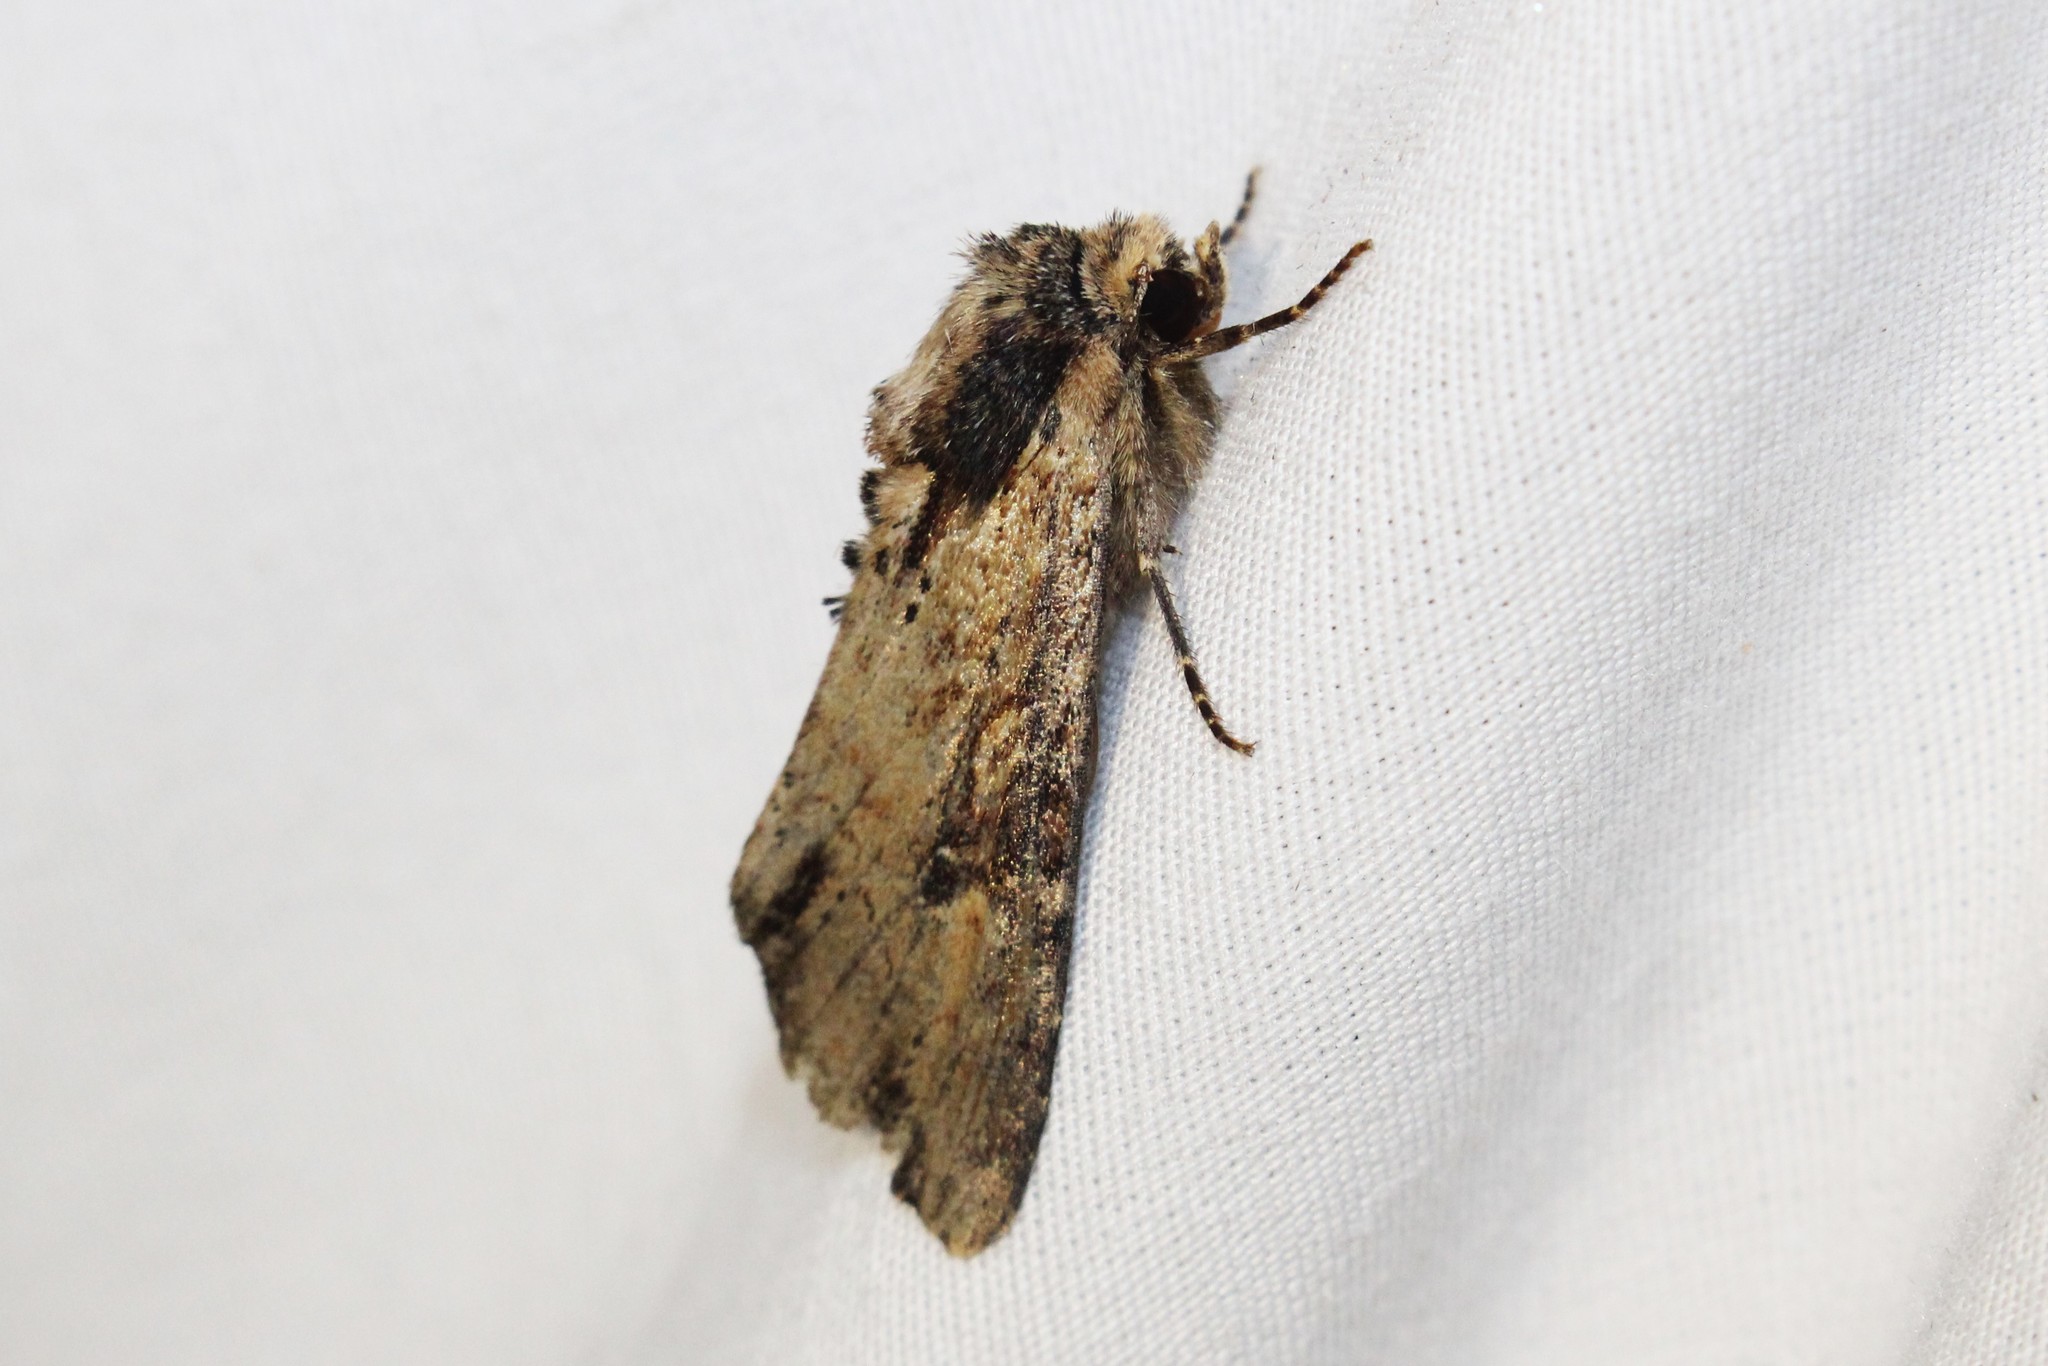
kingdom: Animalia
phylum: Arthropoda
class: Insecta
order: Lepidoptera
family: Noctuidae
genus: Apamea
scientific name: Apamea vultuosa
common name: Airy apamea moth
